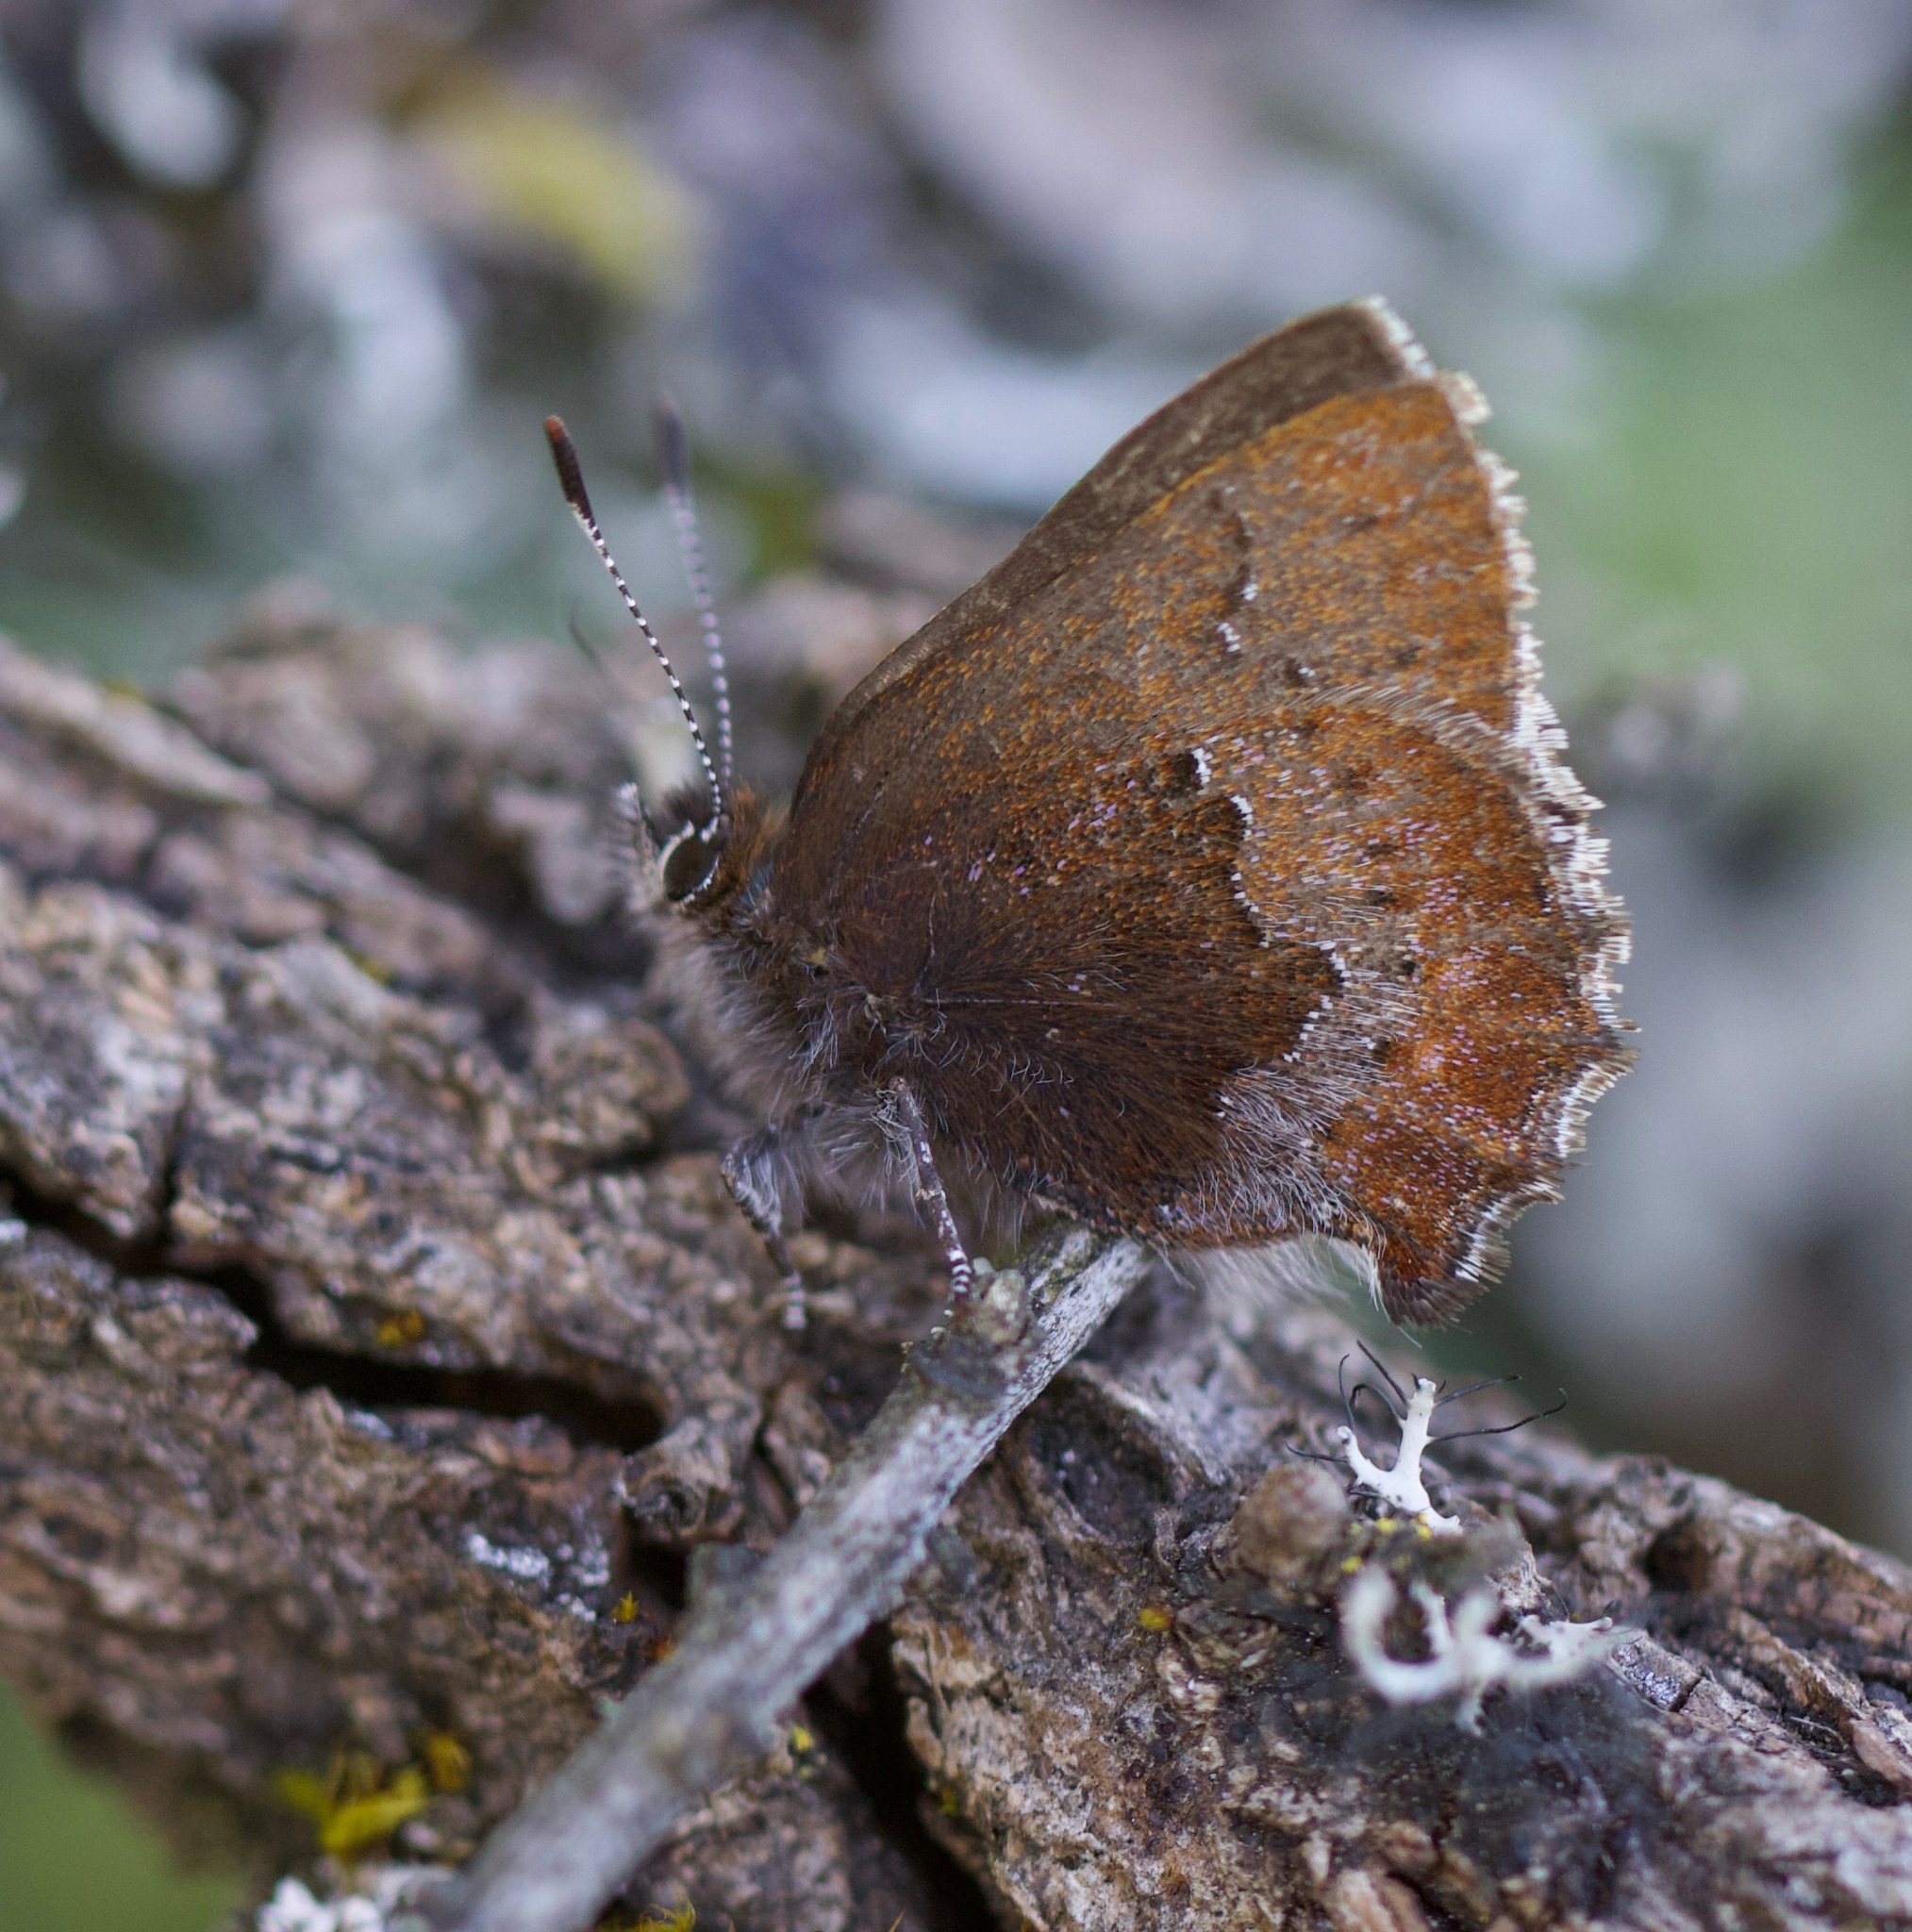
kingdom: Animalia
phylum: Arthropoda
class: Insecta
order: Lepidoptera
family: Lycaenidae
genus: Callophrys
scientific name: Callophrys mossii
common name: Moss' elfin
